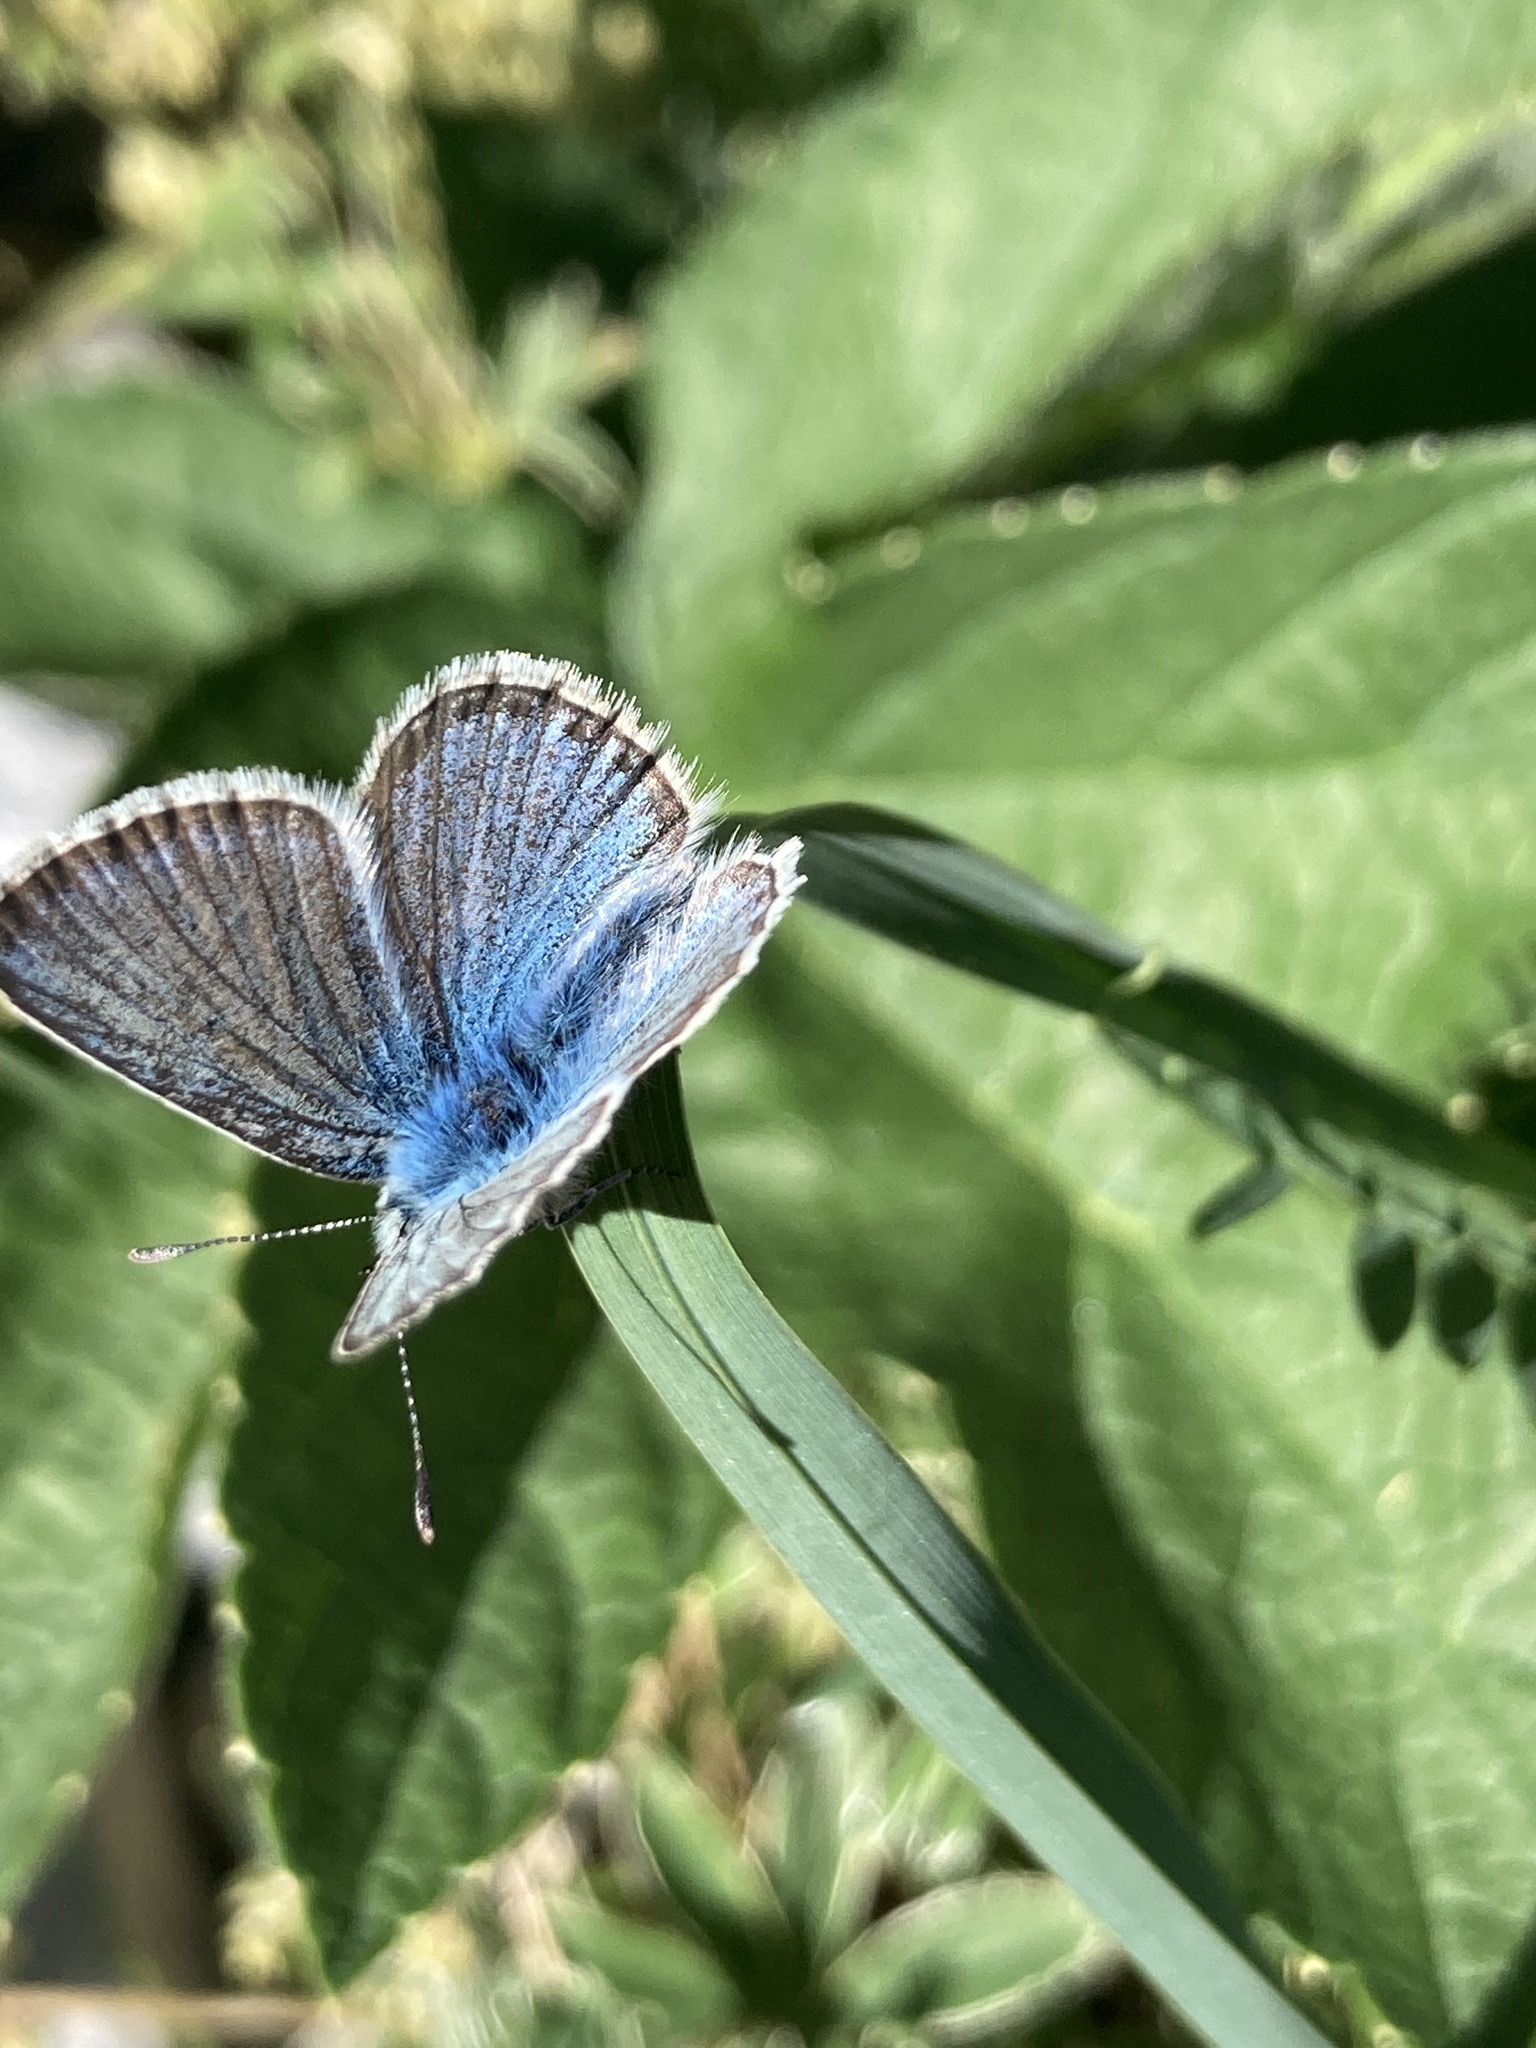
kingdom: Animalia
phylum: Arthropoda
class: Insecta
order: Lepidoptera
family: Lycaenidae
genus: Polyommatus
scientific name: Polyommatus eros
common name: Eros blue
